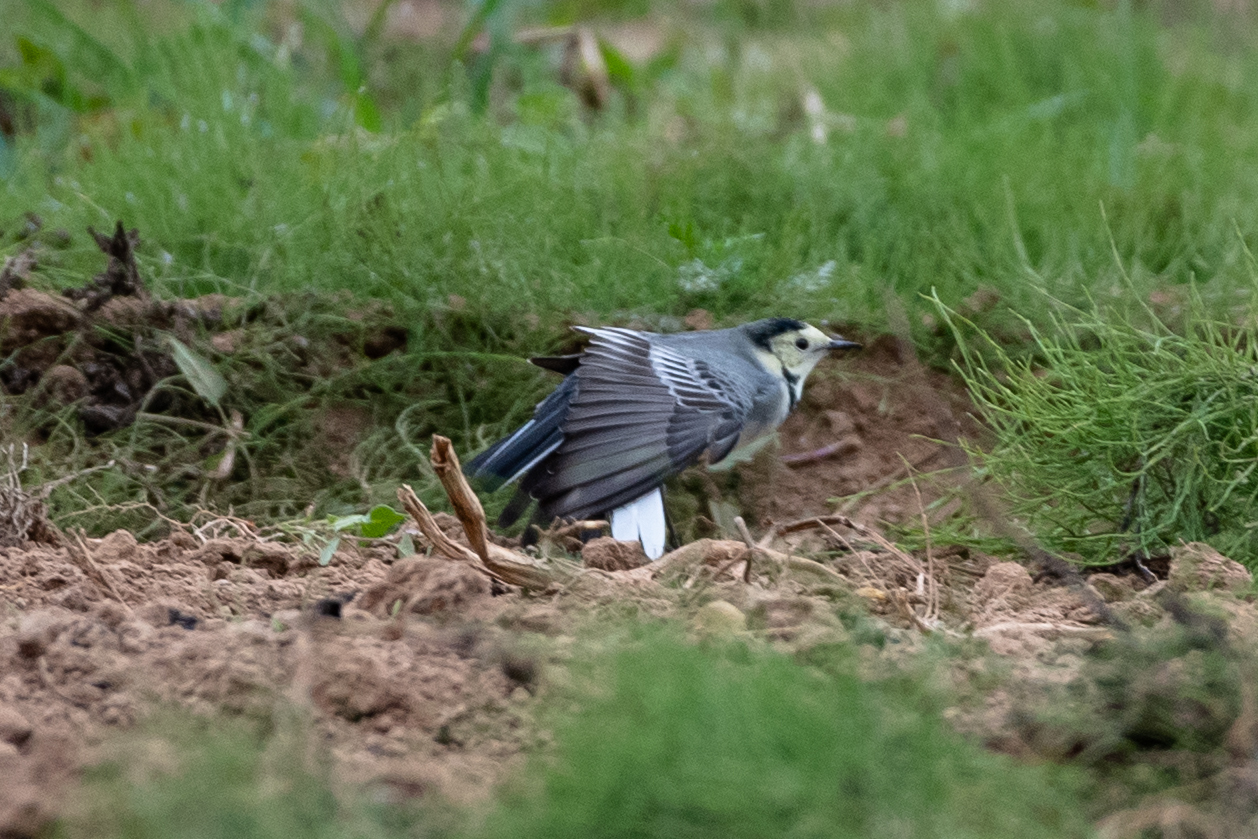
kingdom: Animalia
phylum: Chordata
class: Aves
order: Passeriformes
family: Motacillidae
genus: Motacilla
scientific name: Motacilla alba
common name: White wagtail
